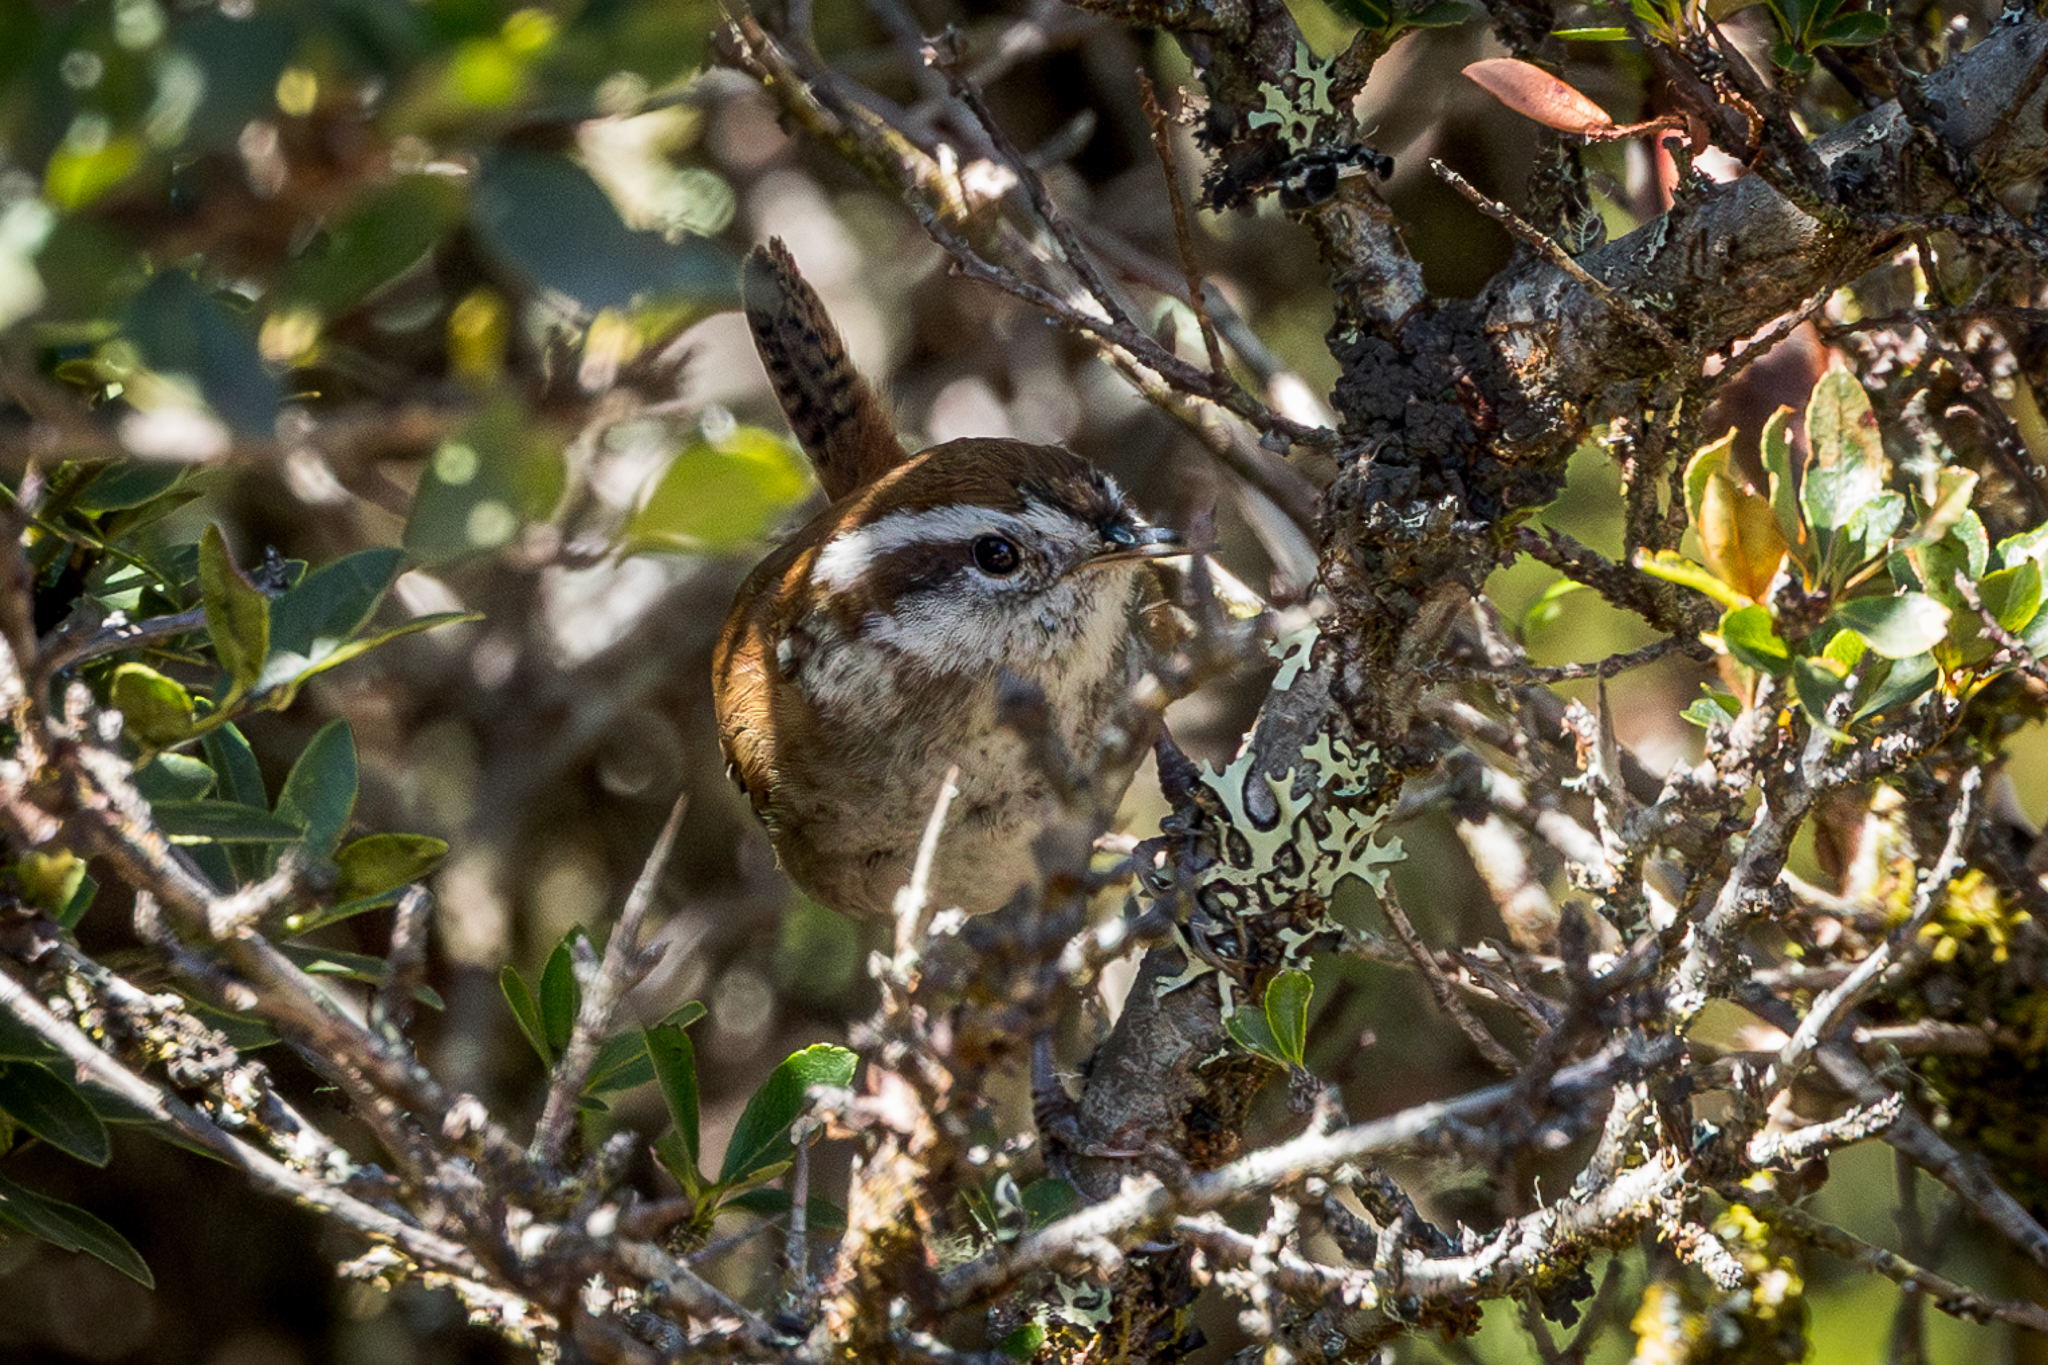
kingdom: Animalia
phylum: Chordata
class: Aves
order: Passeriformes
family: Troglodytidae
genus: Thryorchilus
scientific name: Thryorchilus browni
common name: Timberline wren
